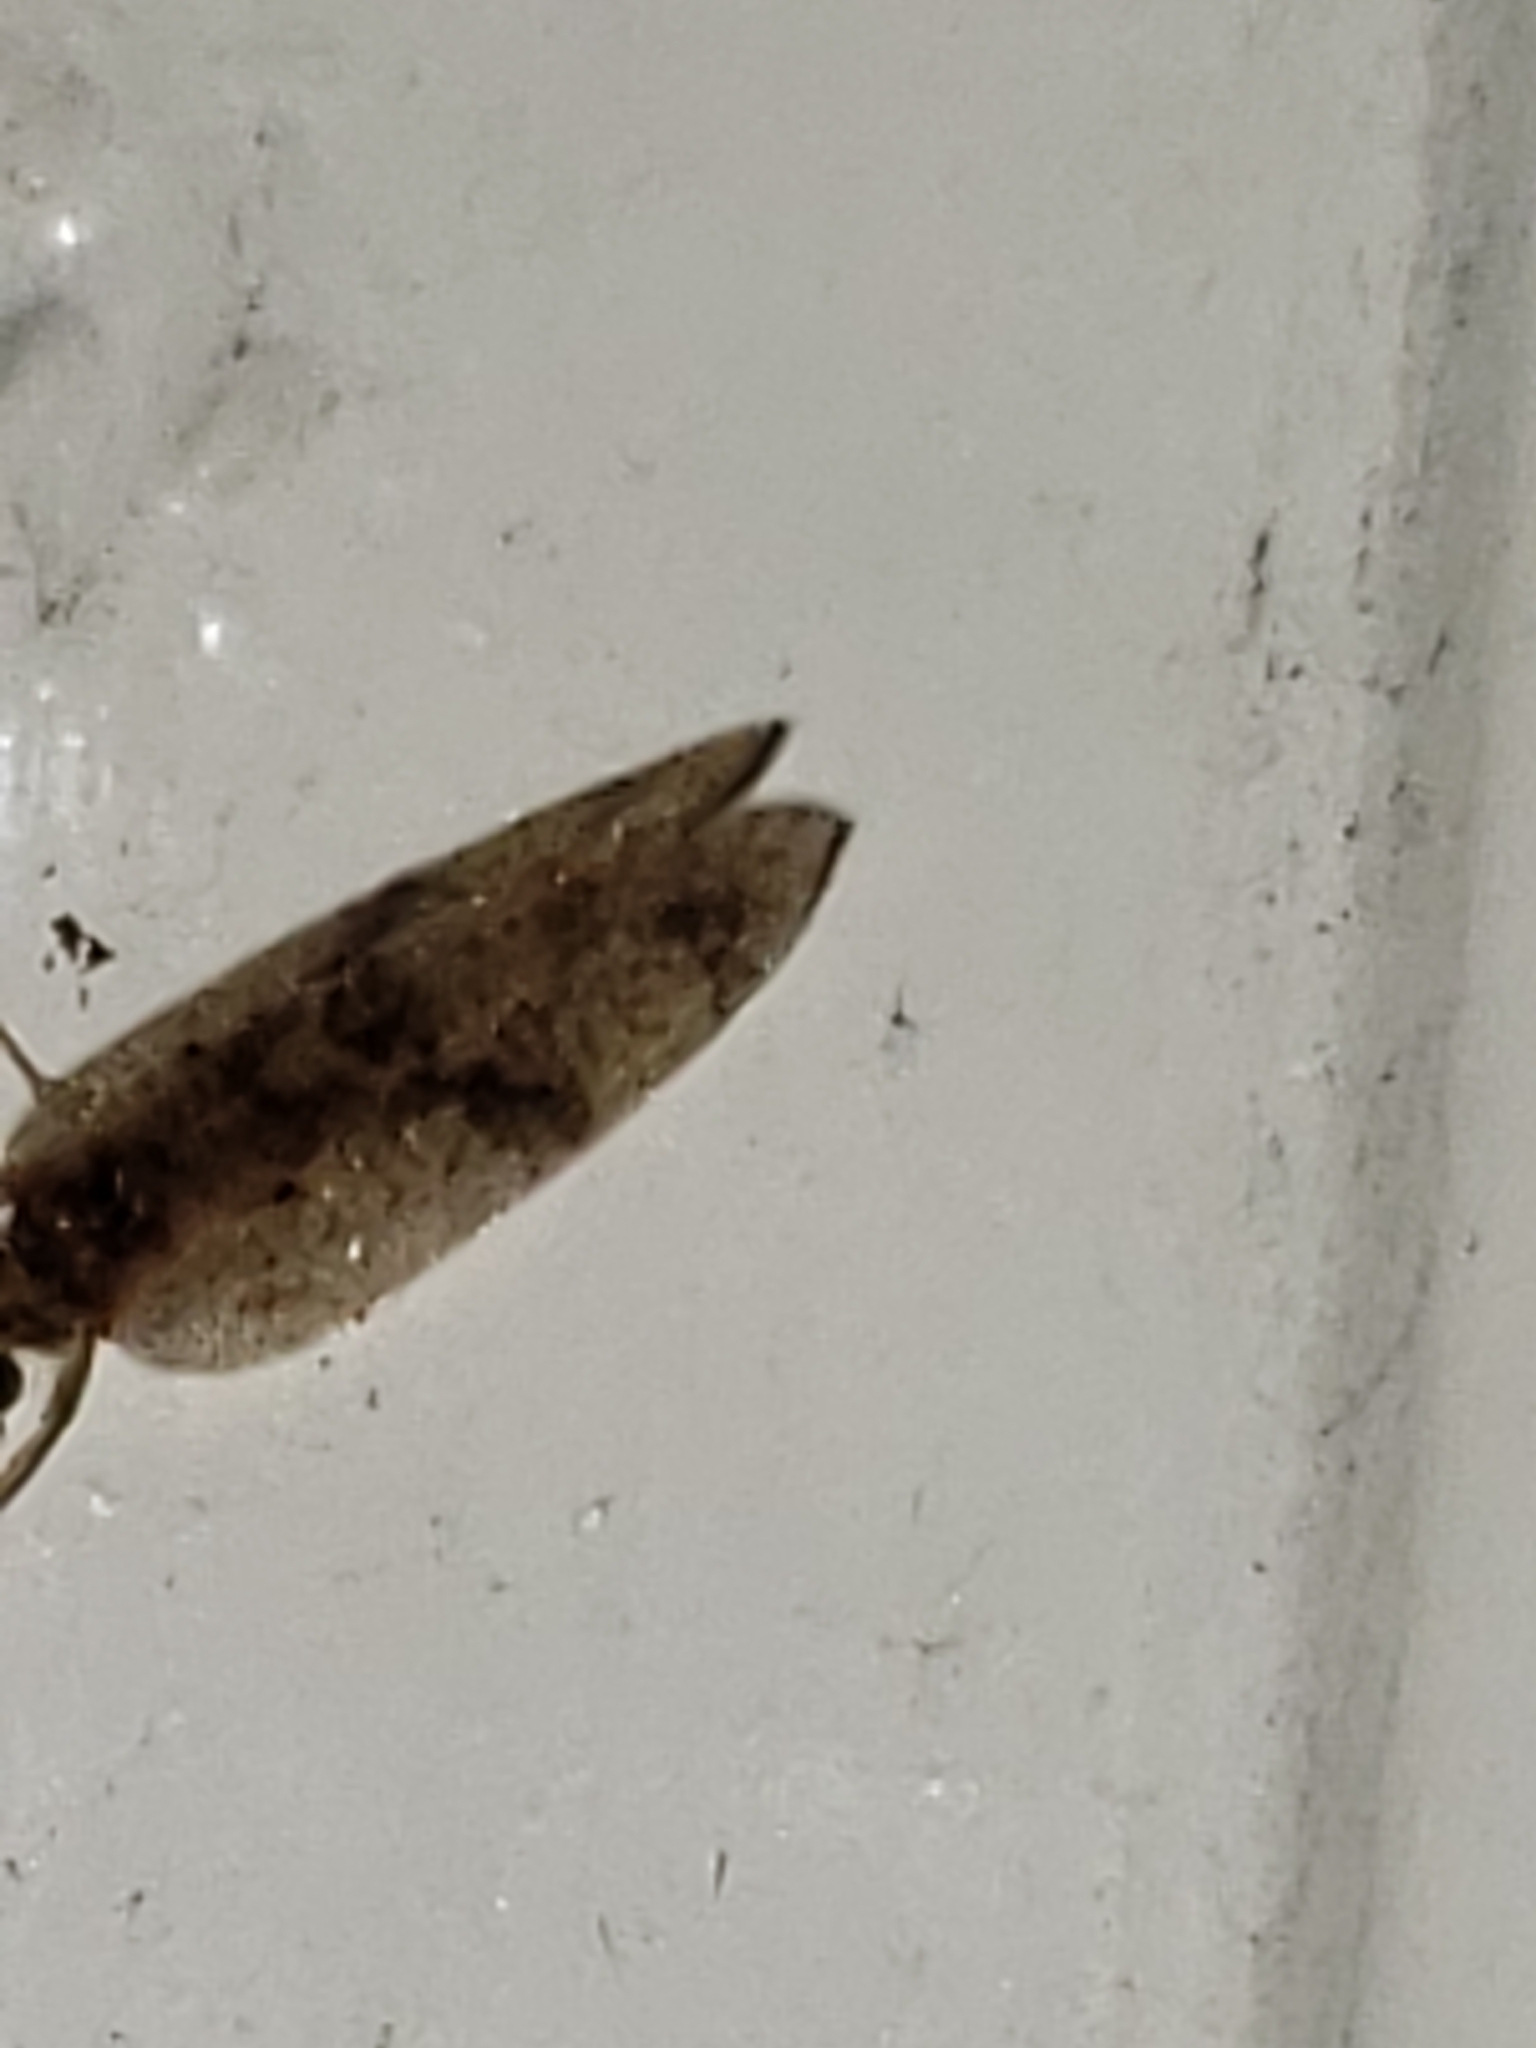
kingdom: Animalia
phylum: Arthropoda
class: Insecta
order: Neuroptera
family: Hemerobiidae
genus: Megalomus
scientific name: Megalomus fidelis
